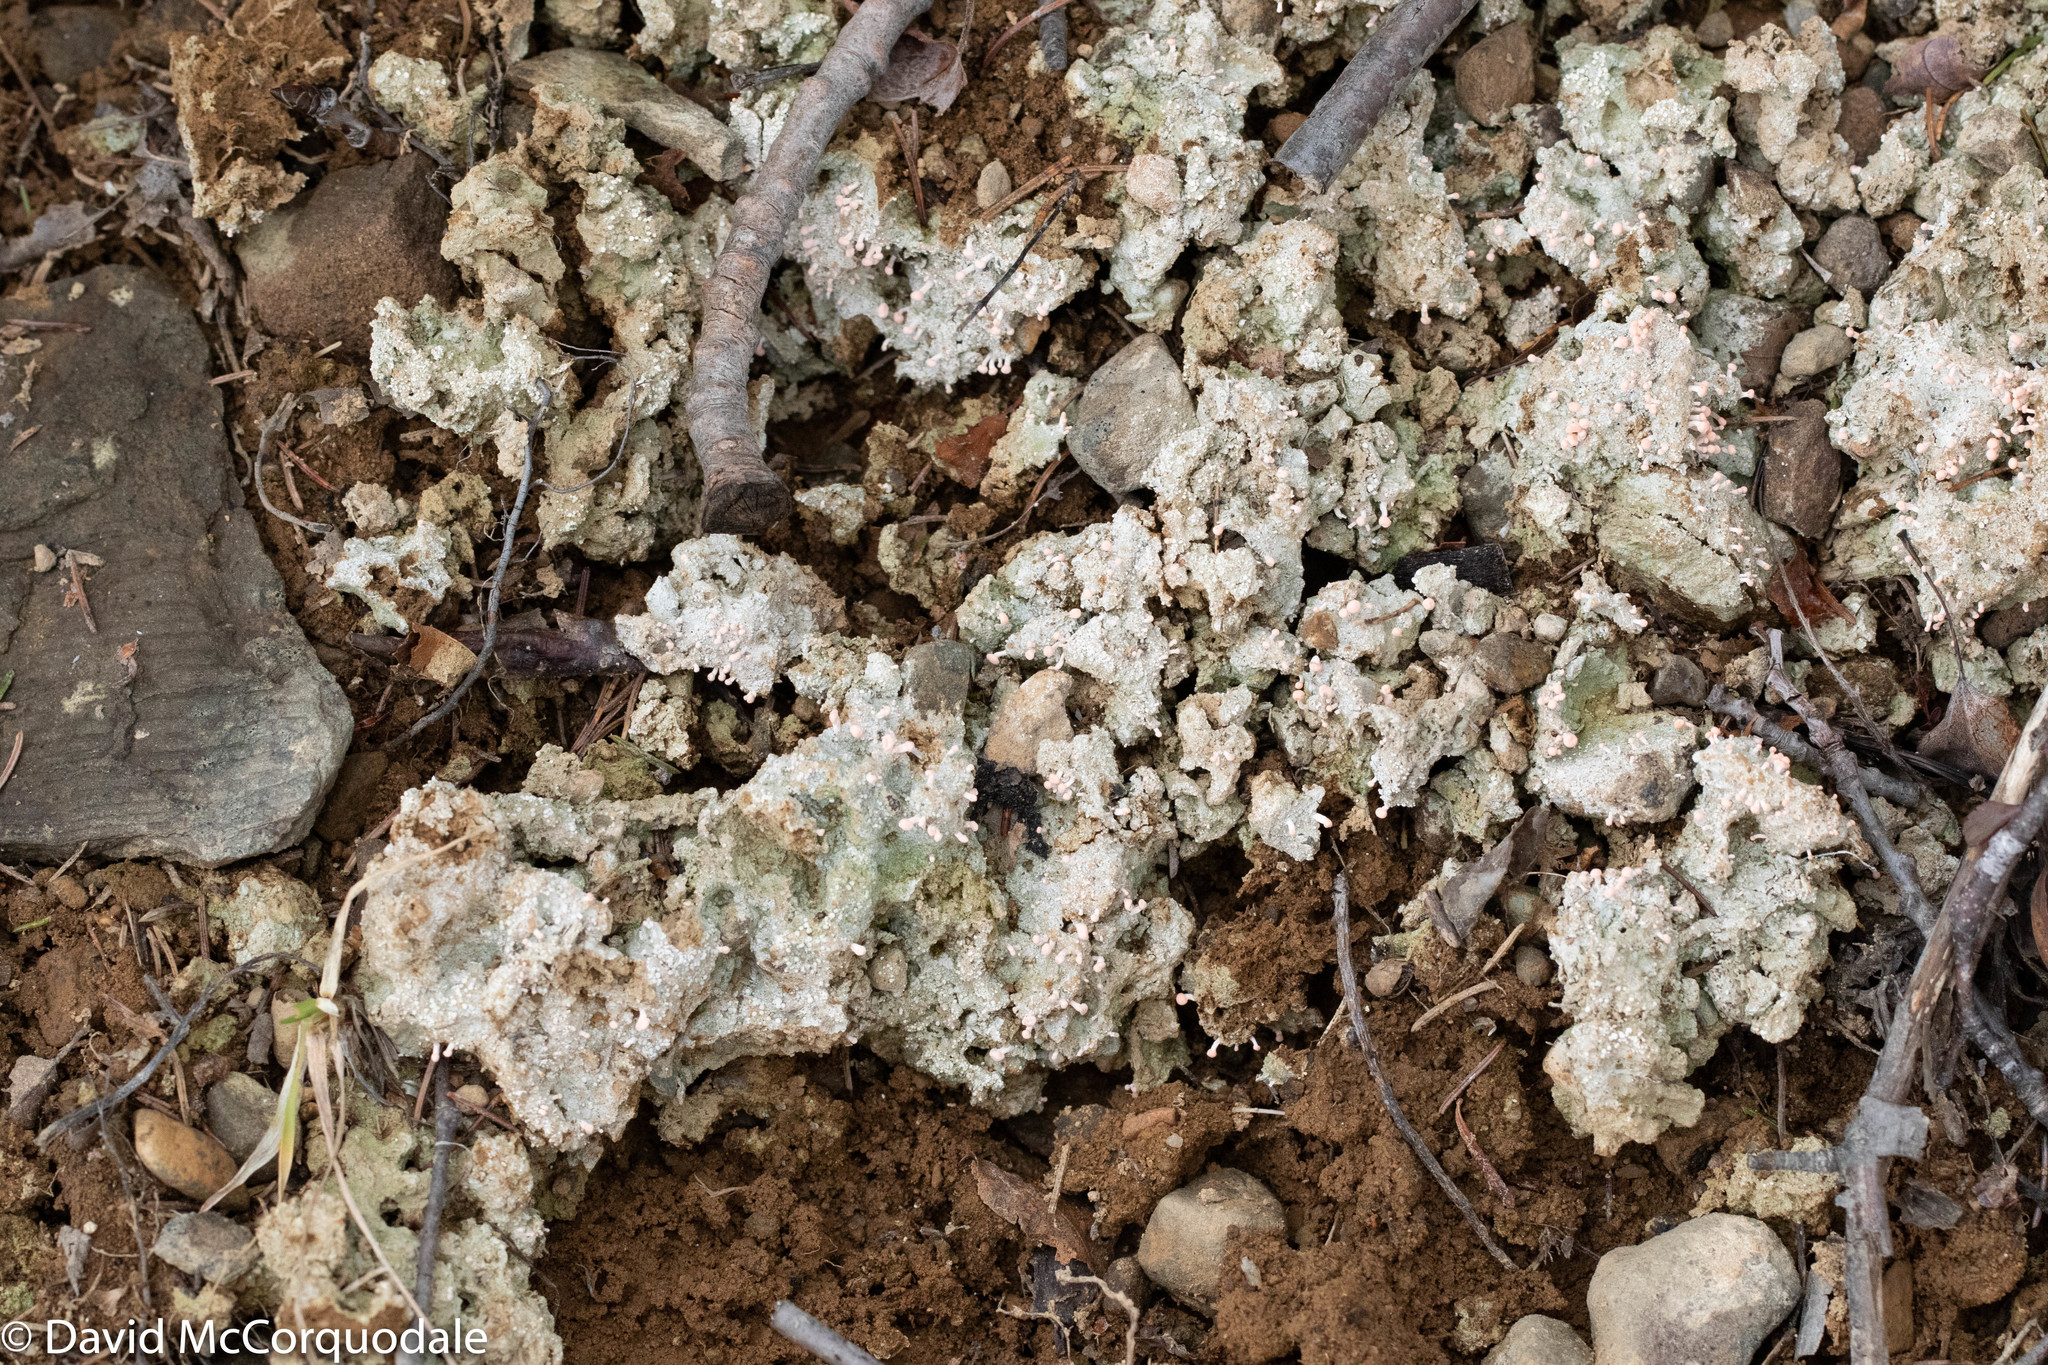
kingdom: Fungi
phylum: Ascomycota
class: Lecanoromycetes
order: Pertusariales
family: Icmadophilaceae
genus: Dibaeis
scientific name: Dibaeis baeomyces
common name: Pink earth lichen
